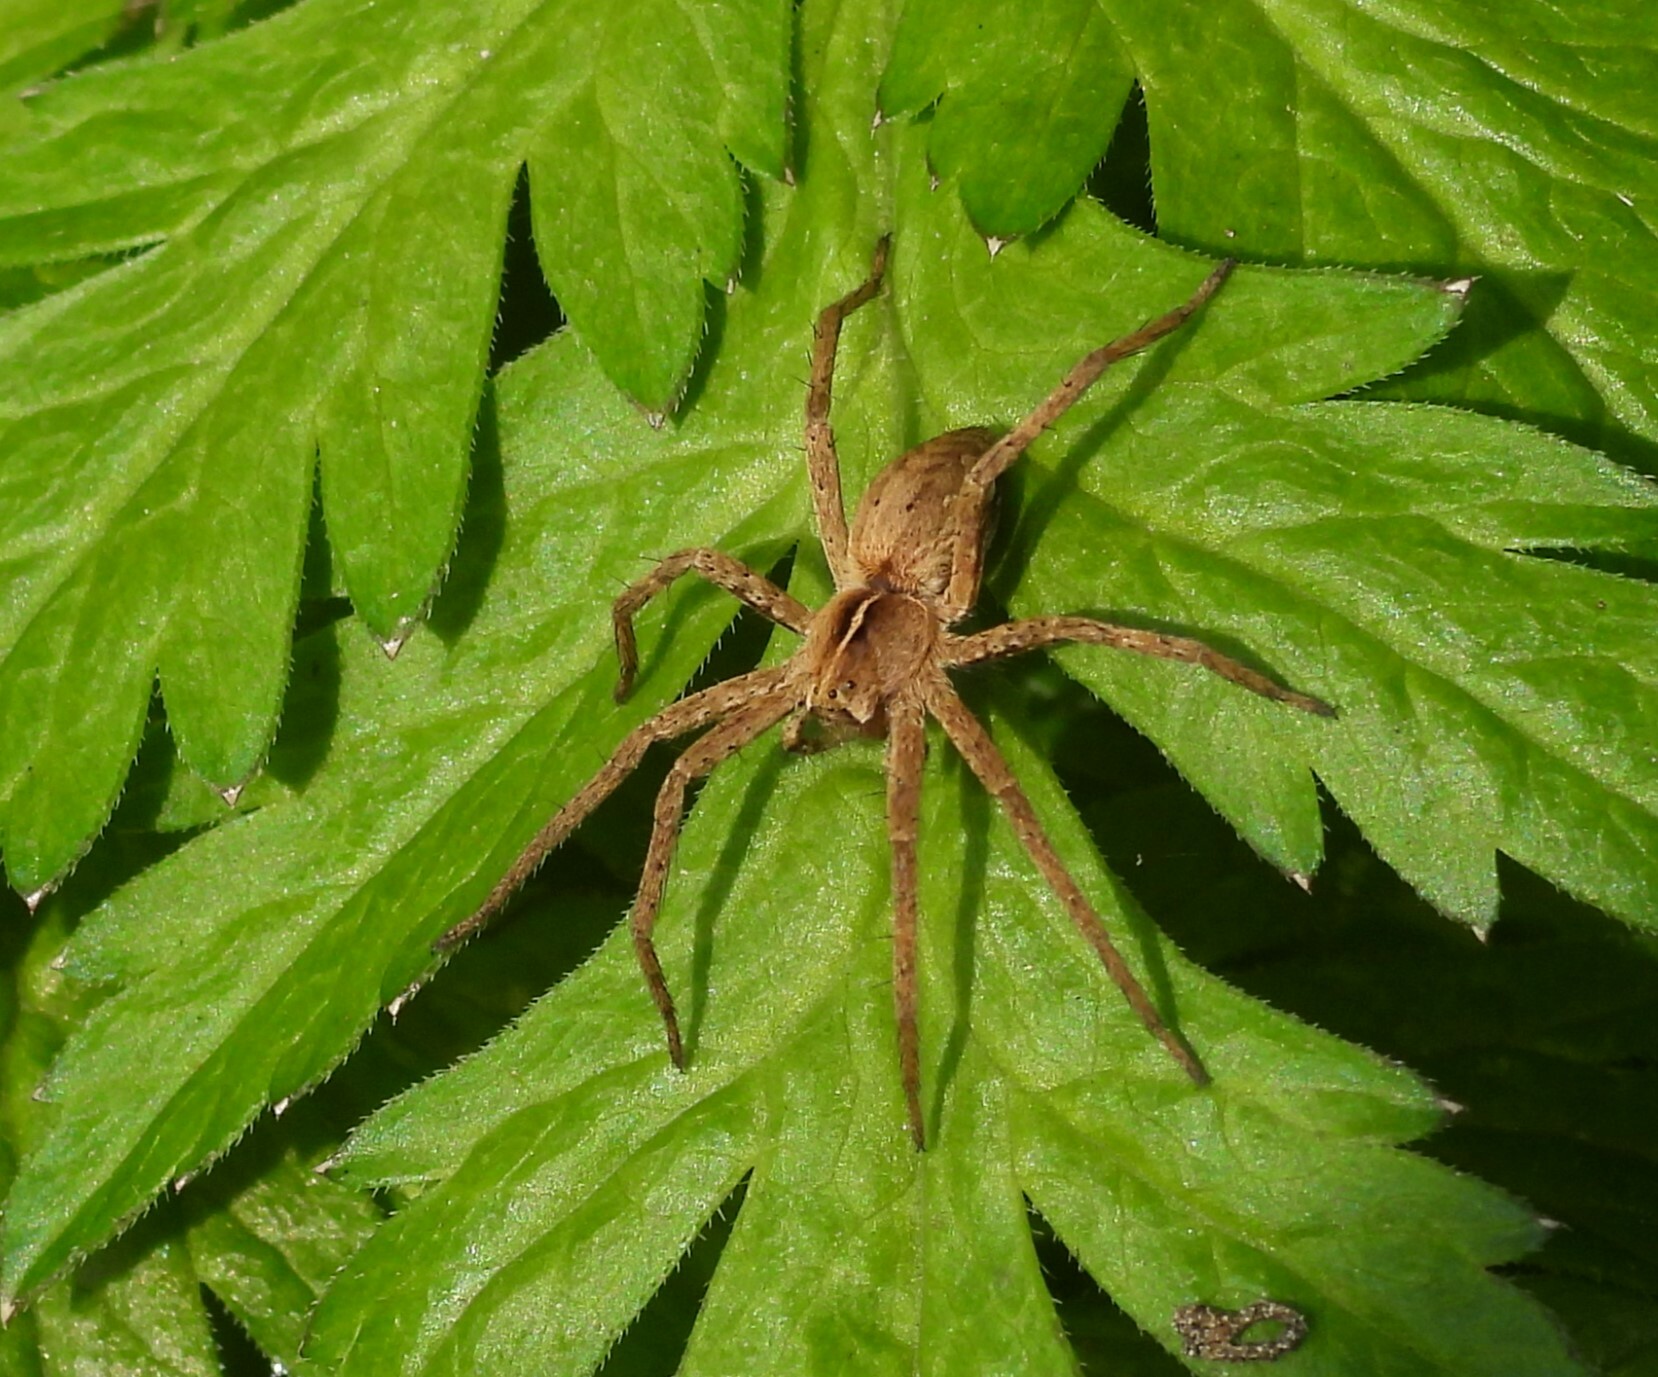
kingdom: Animalia
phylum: Arthropoda
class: Arachnida
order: Araneae
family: Pisauridae
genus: Pisaura
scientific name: Pisaura mirabilis
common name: Tent spider
